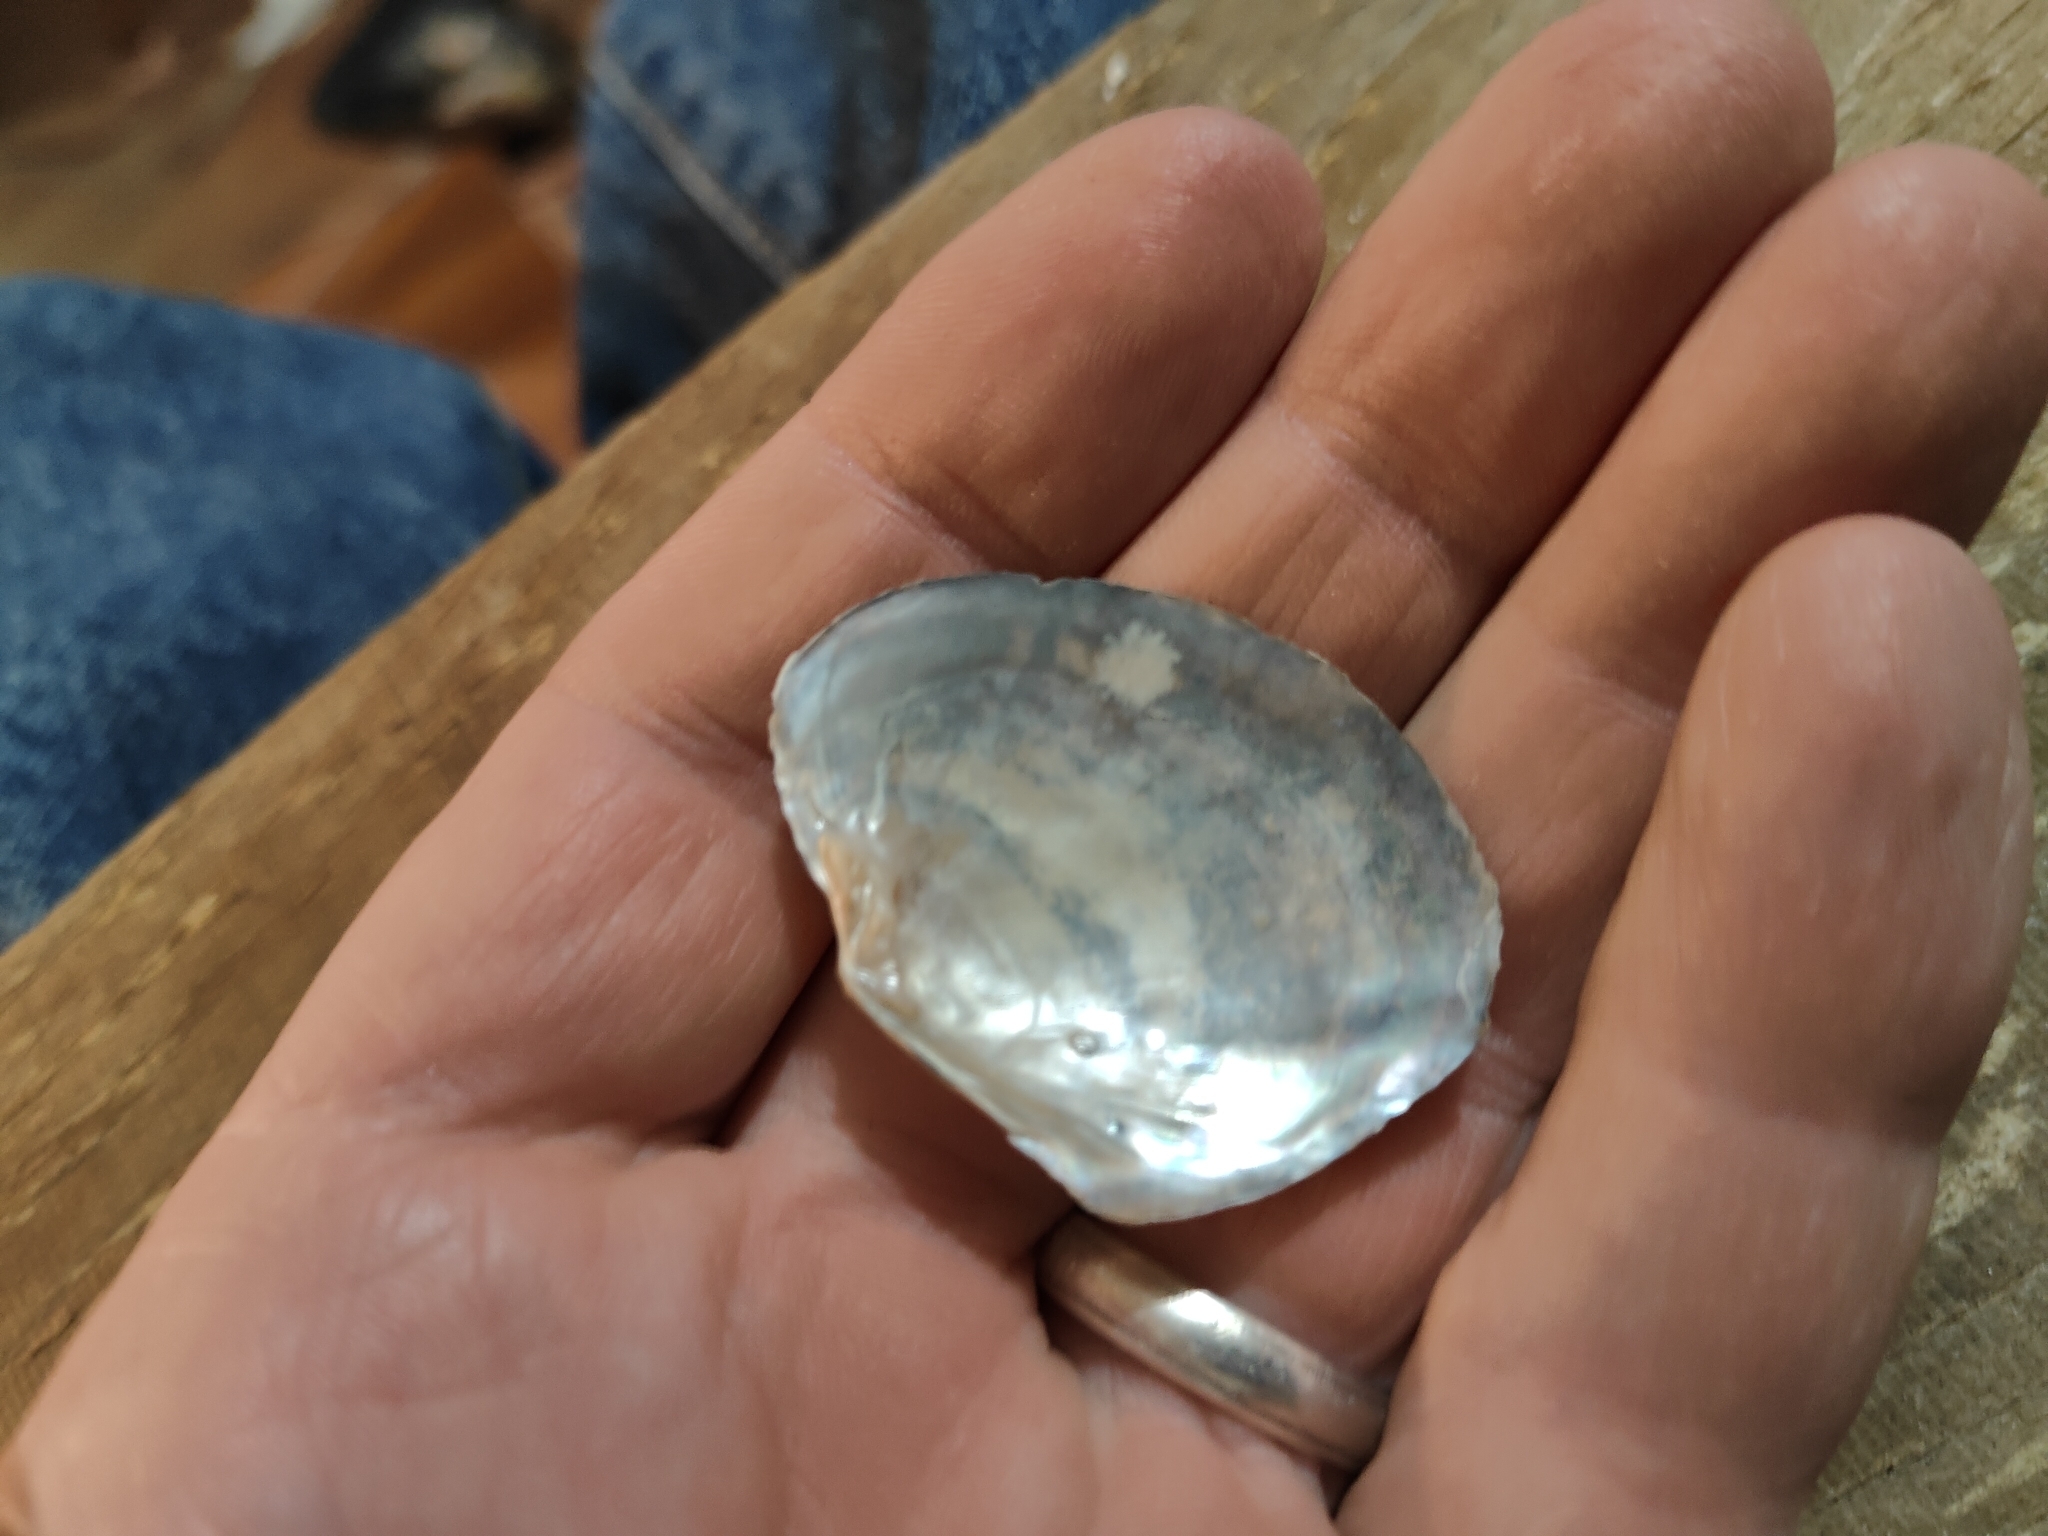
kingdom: Animalia
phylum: Mollusca
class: Bivalvia
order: Unionida
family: Unionidae
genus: Lasmigona
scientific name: Lasmigona complanata
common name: White heelsplitter
